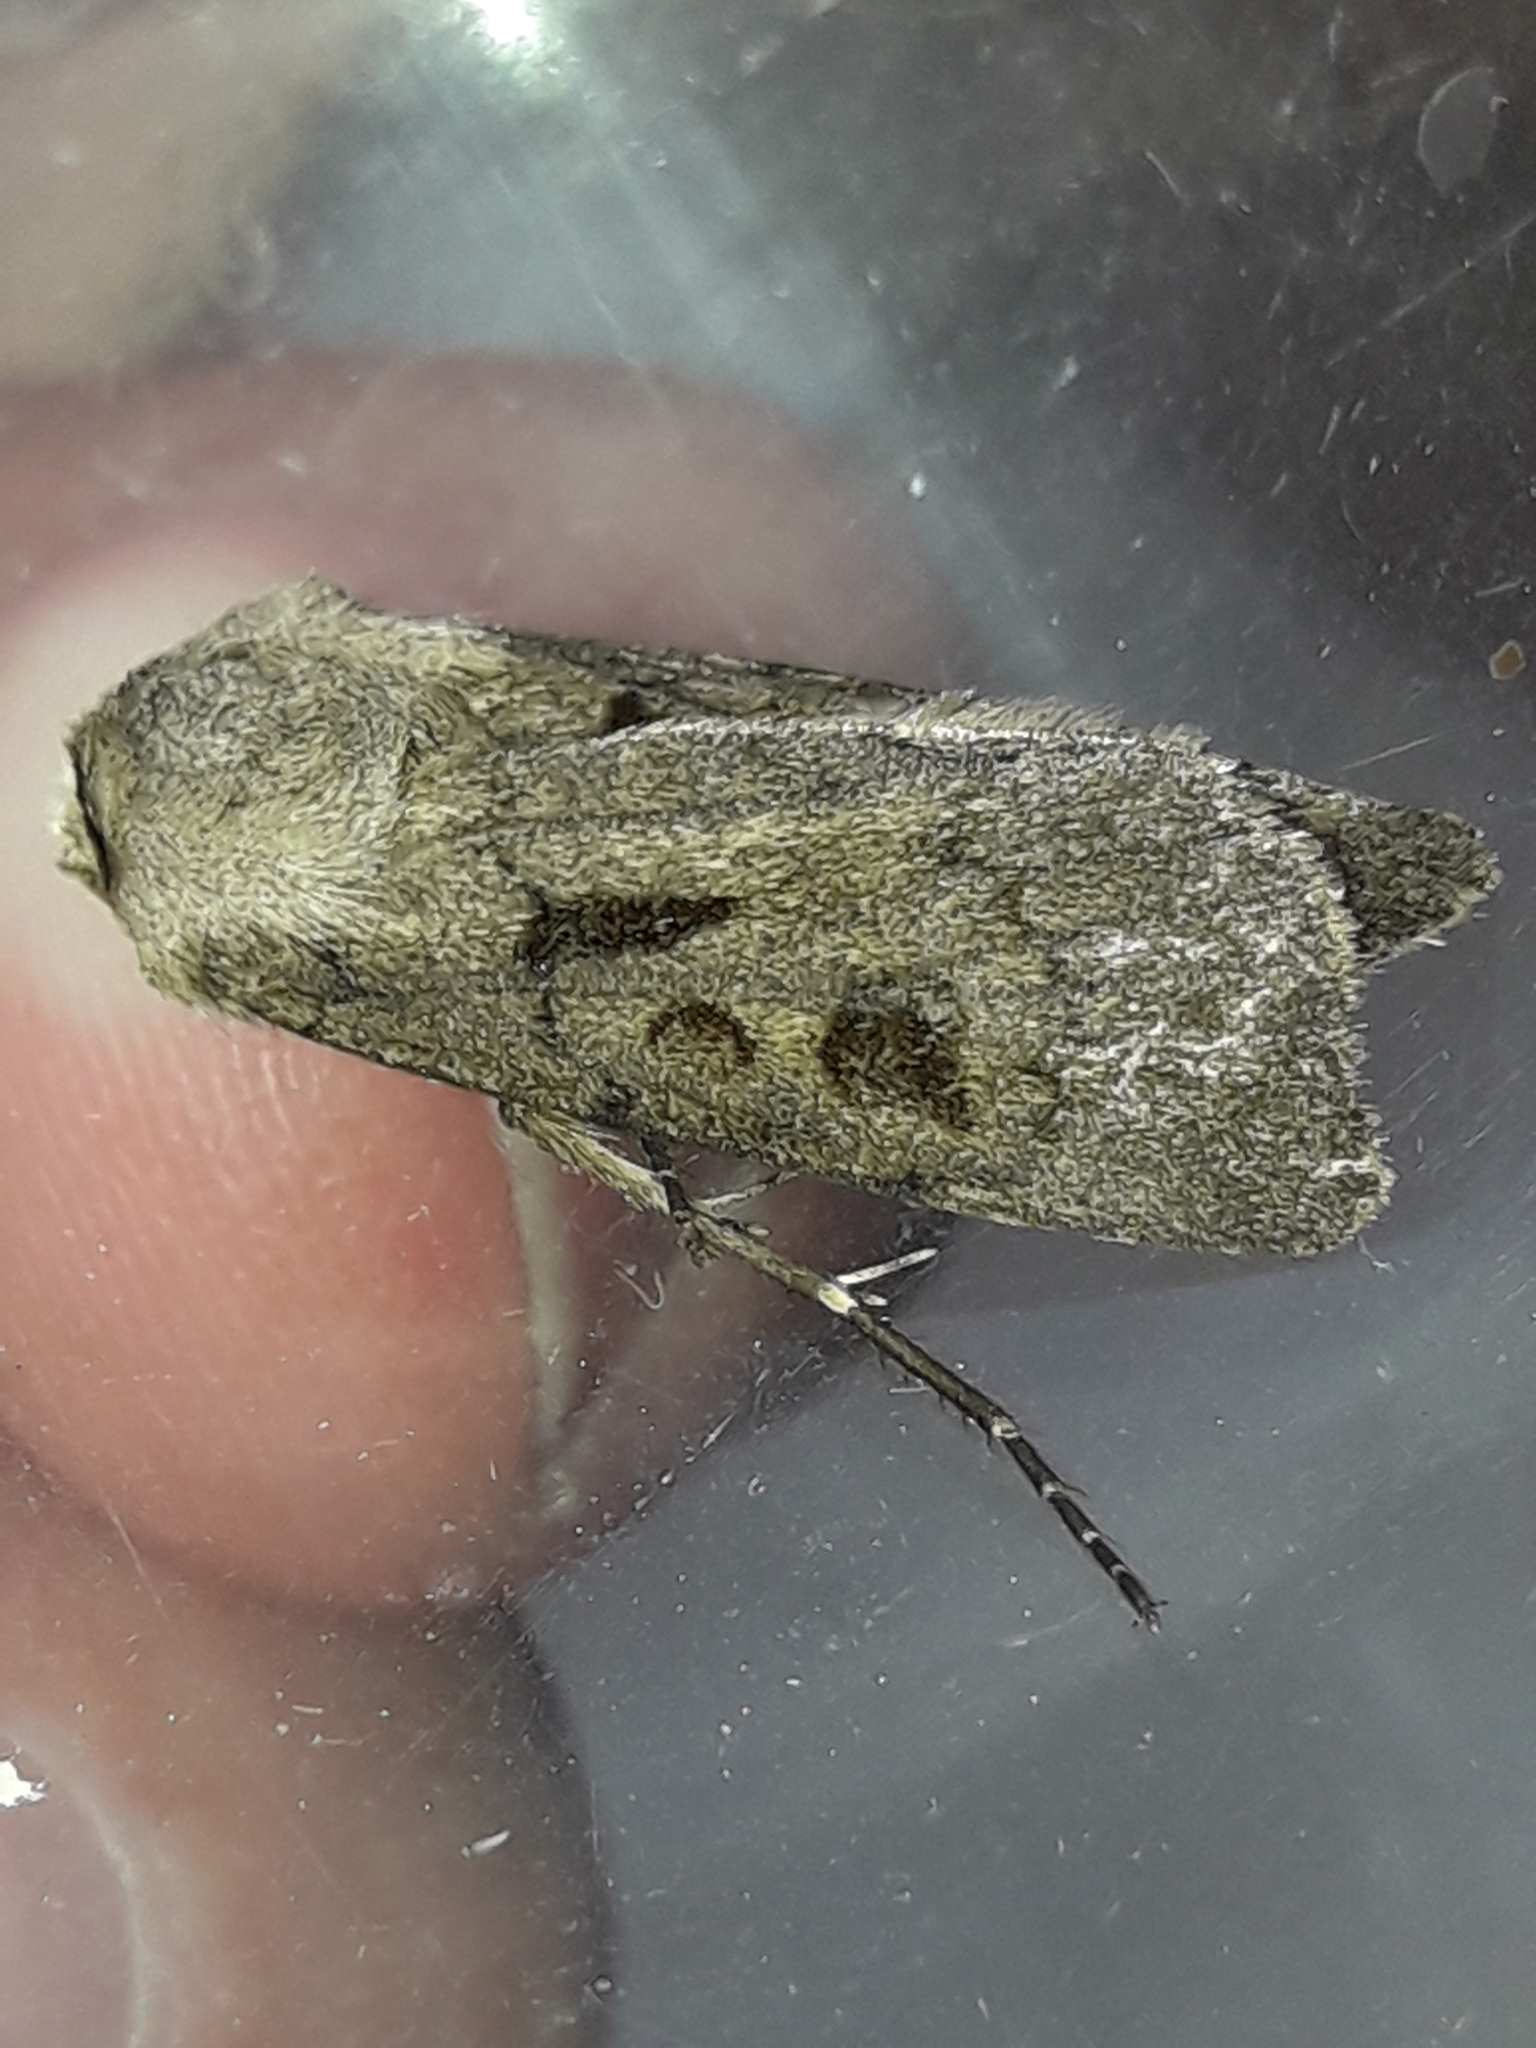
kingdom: Animalia
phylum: Arthropoda
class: Insecta
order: Lepidoptera
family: Noctuidae
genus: Agrotis
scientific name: Agrotis exclamationis
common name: Heart and dart
